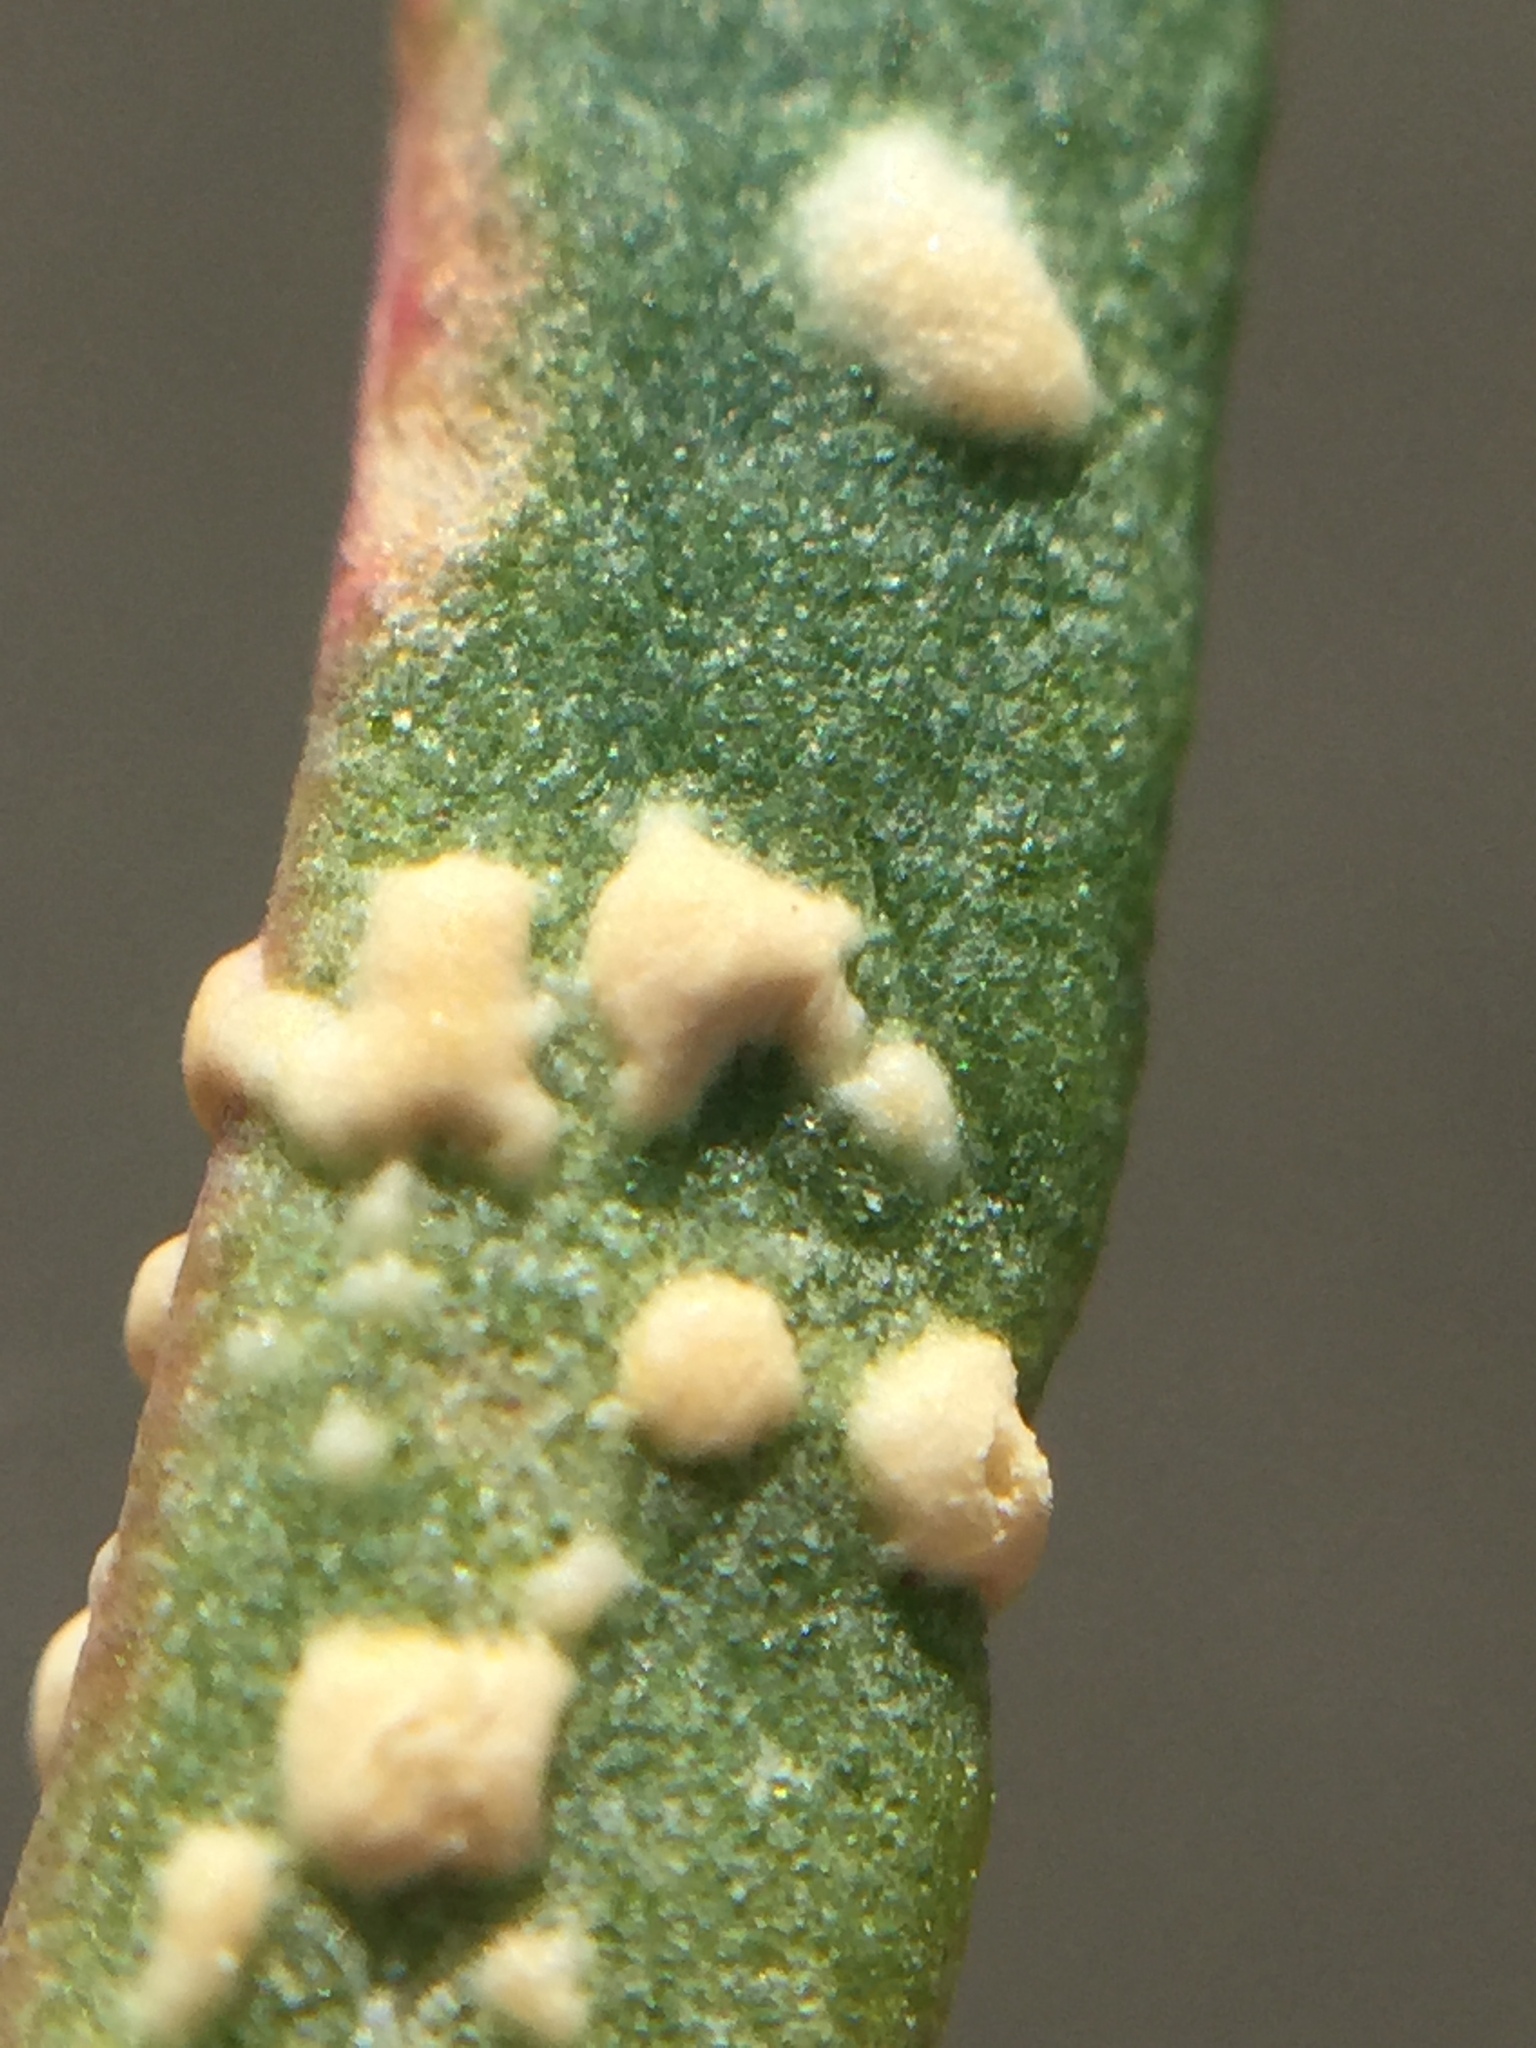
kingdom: Chromista
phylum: Oomycota
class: Peronosporea
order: Albuginales
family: Albuginaceae
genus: Albugo
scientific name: Albugo trianthemae
